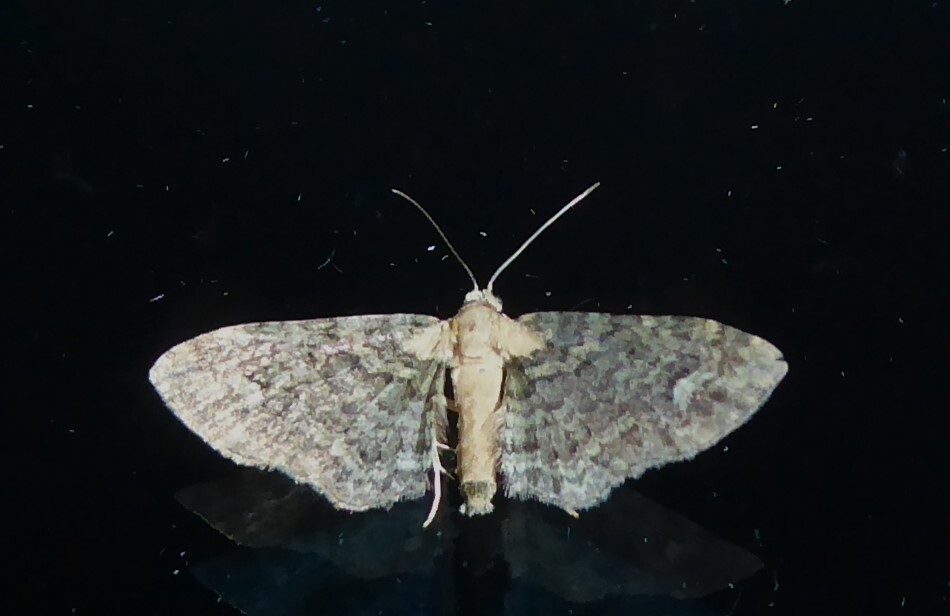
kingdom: Animalia
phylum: Arthropoda
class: Insecta
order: Lepidoptera
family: Geometridae
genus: Pasiphilodes
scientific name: Pasiphilodes testulata
